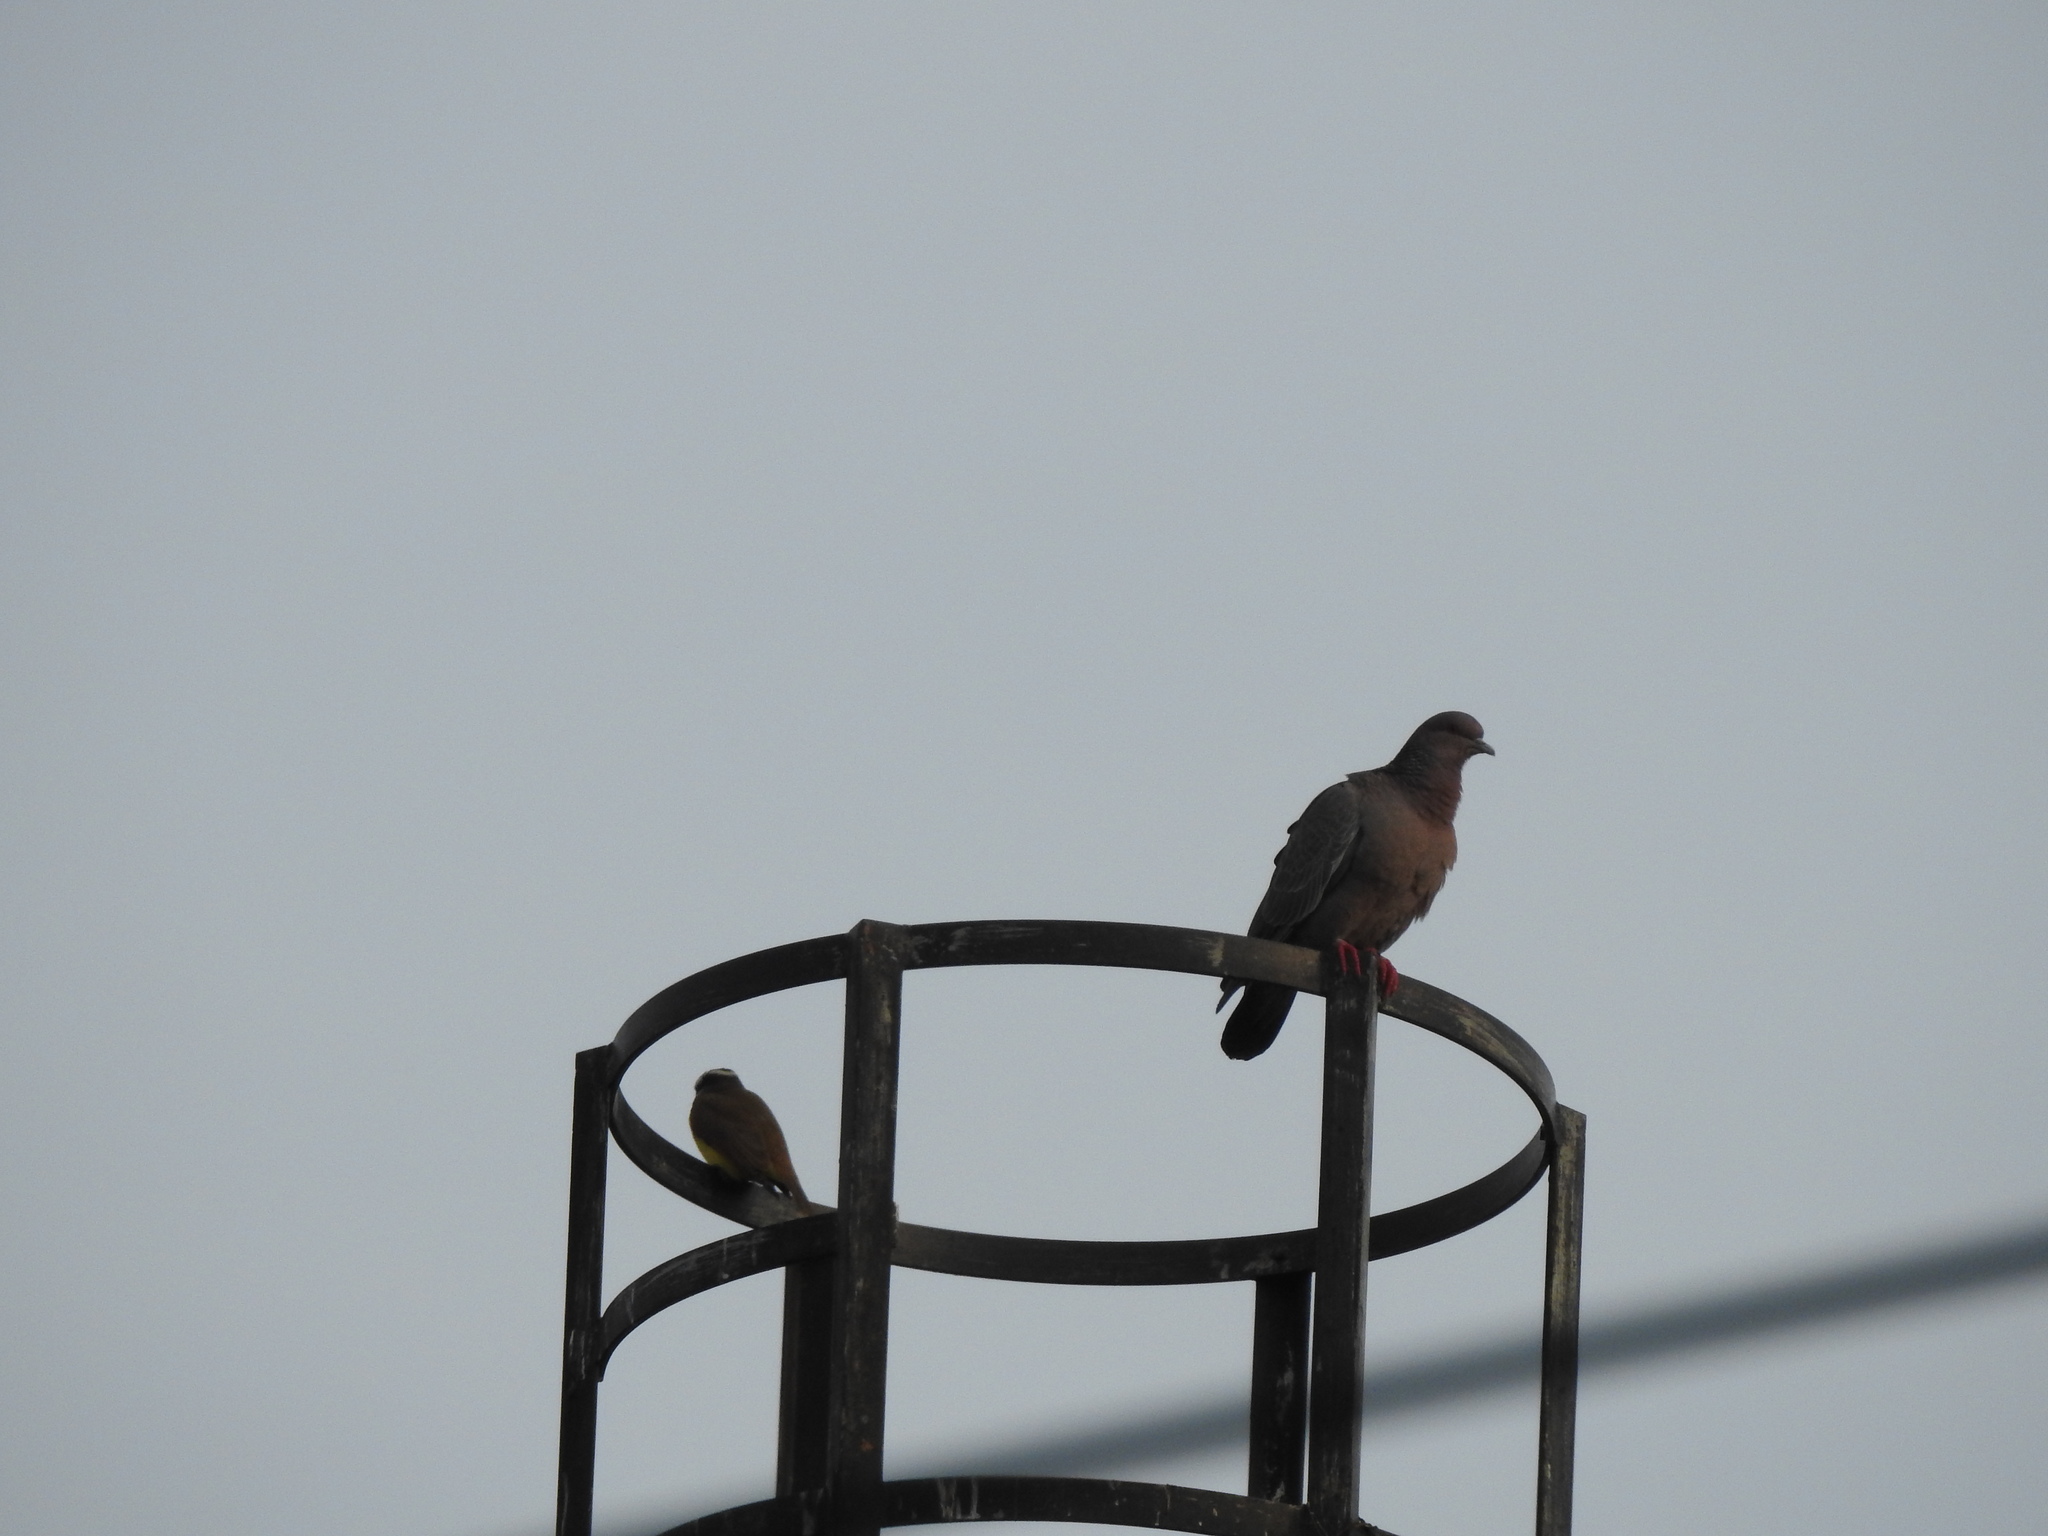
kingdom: Animalia
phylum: Chordata
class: Aves
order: Columbiformes
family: Columbidae
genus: Patagioenas
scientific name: Patagioenas picazuro
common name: Picazuro pigeon
